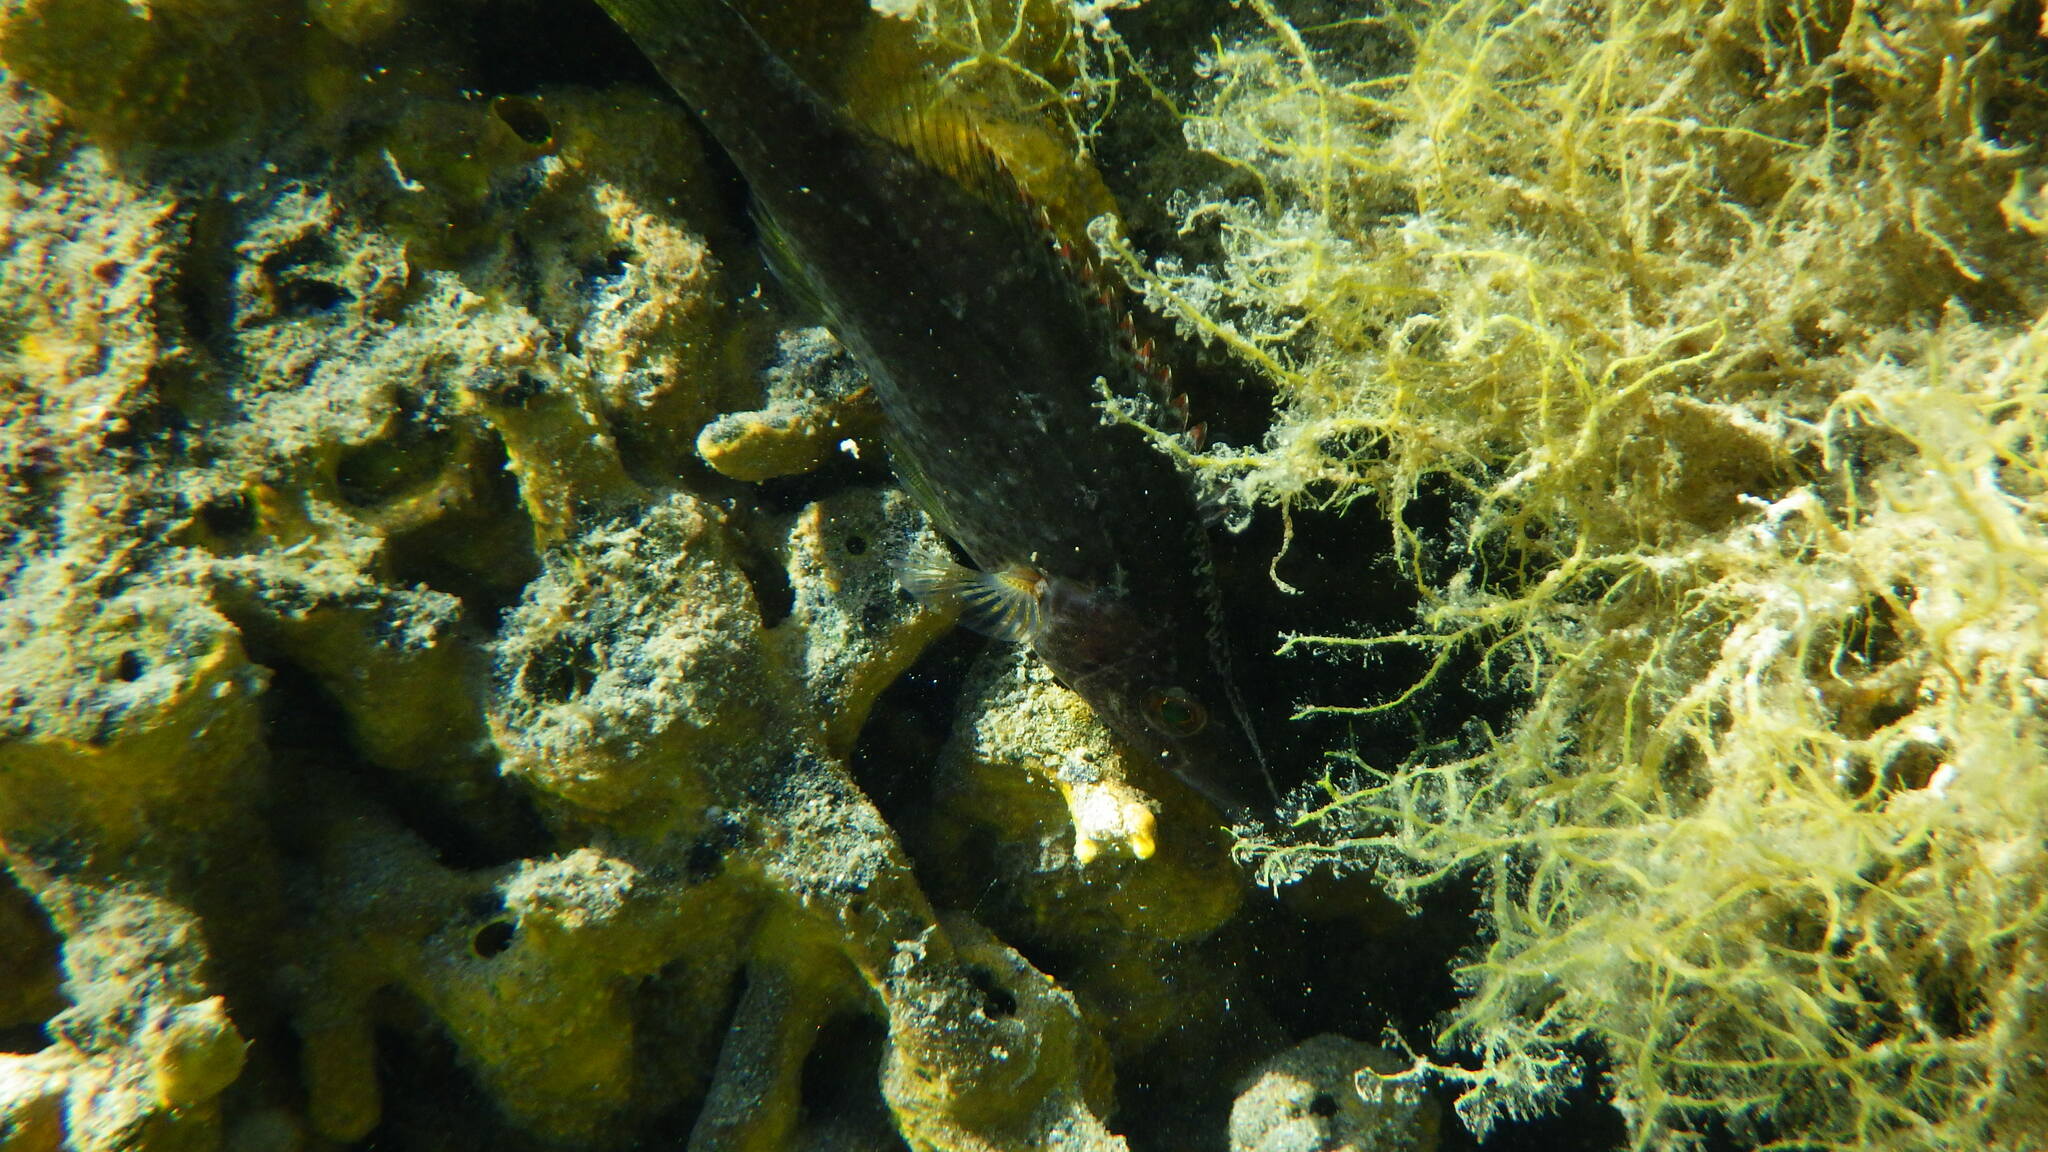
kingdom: Animalia
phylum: Chordata
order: Perciformes
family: Labridae
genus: Symphodus
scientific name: Symphodus rostratus
